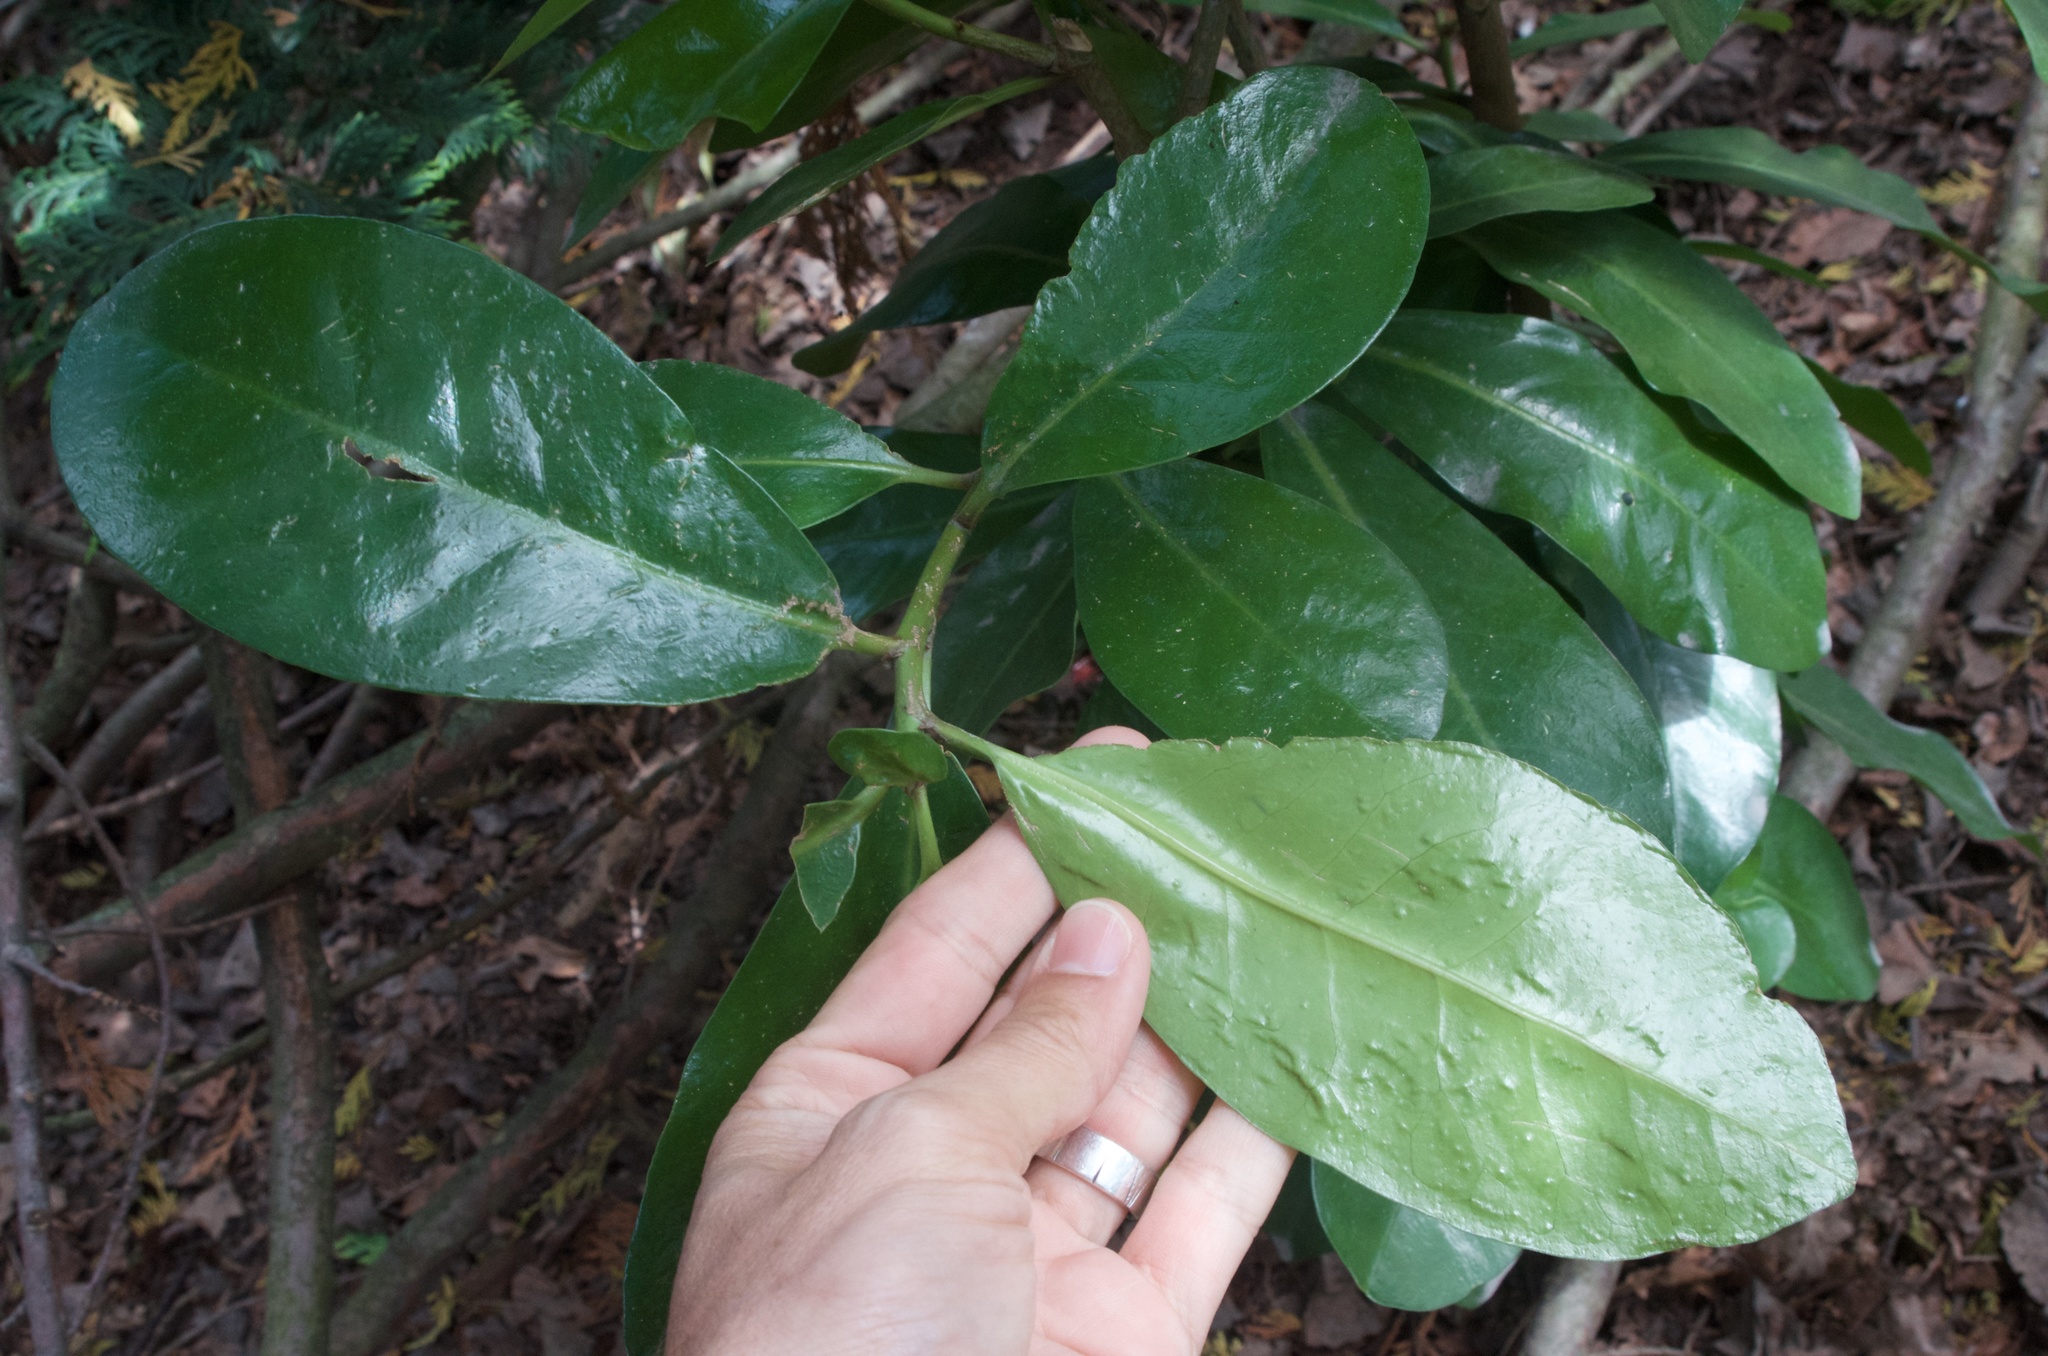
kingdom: Plantae
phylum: Tracheophyta
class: Magnoliopsida
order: Cucurbitales
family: Corynocarpaceae
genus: Corynocarpus
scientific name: Corynocarpus laevigatus
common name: New zealand laurel
